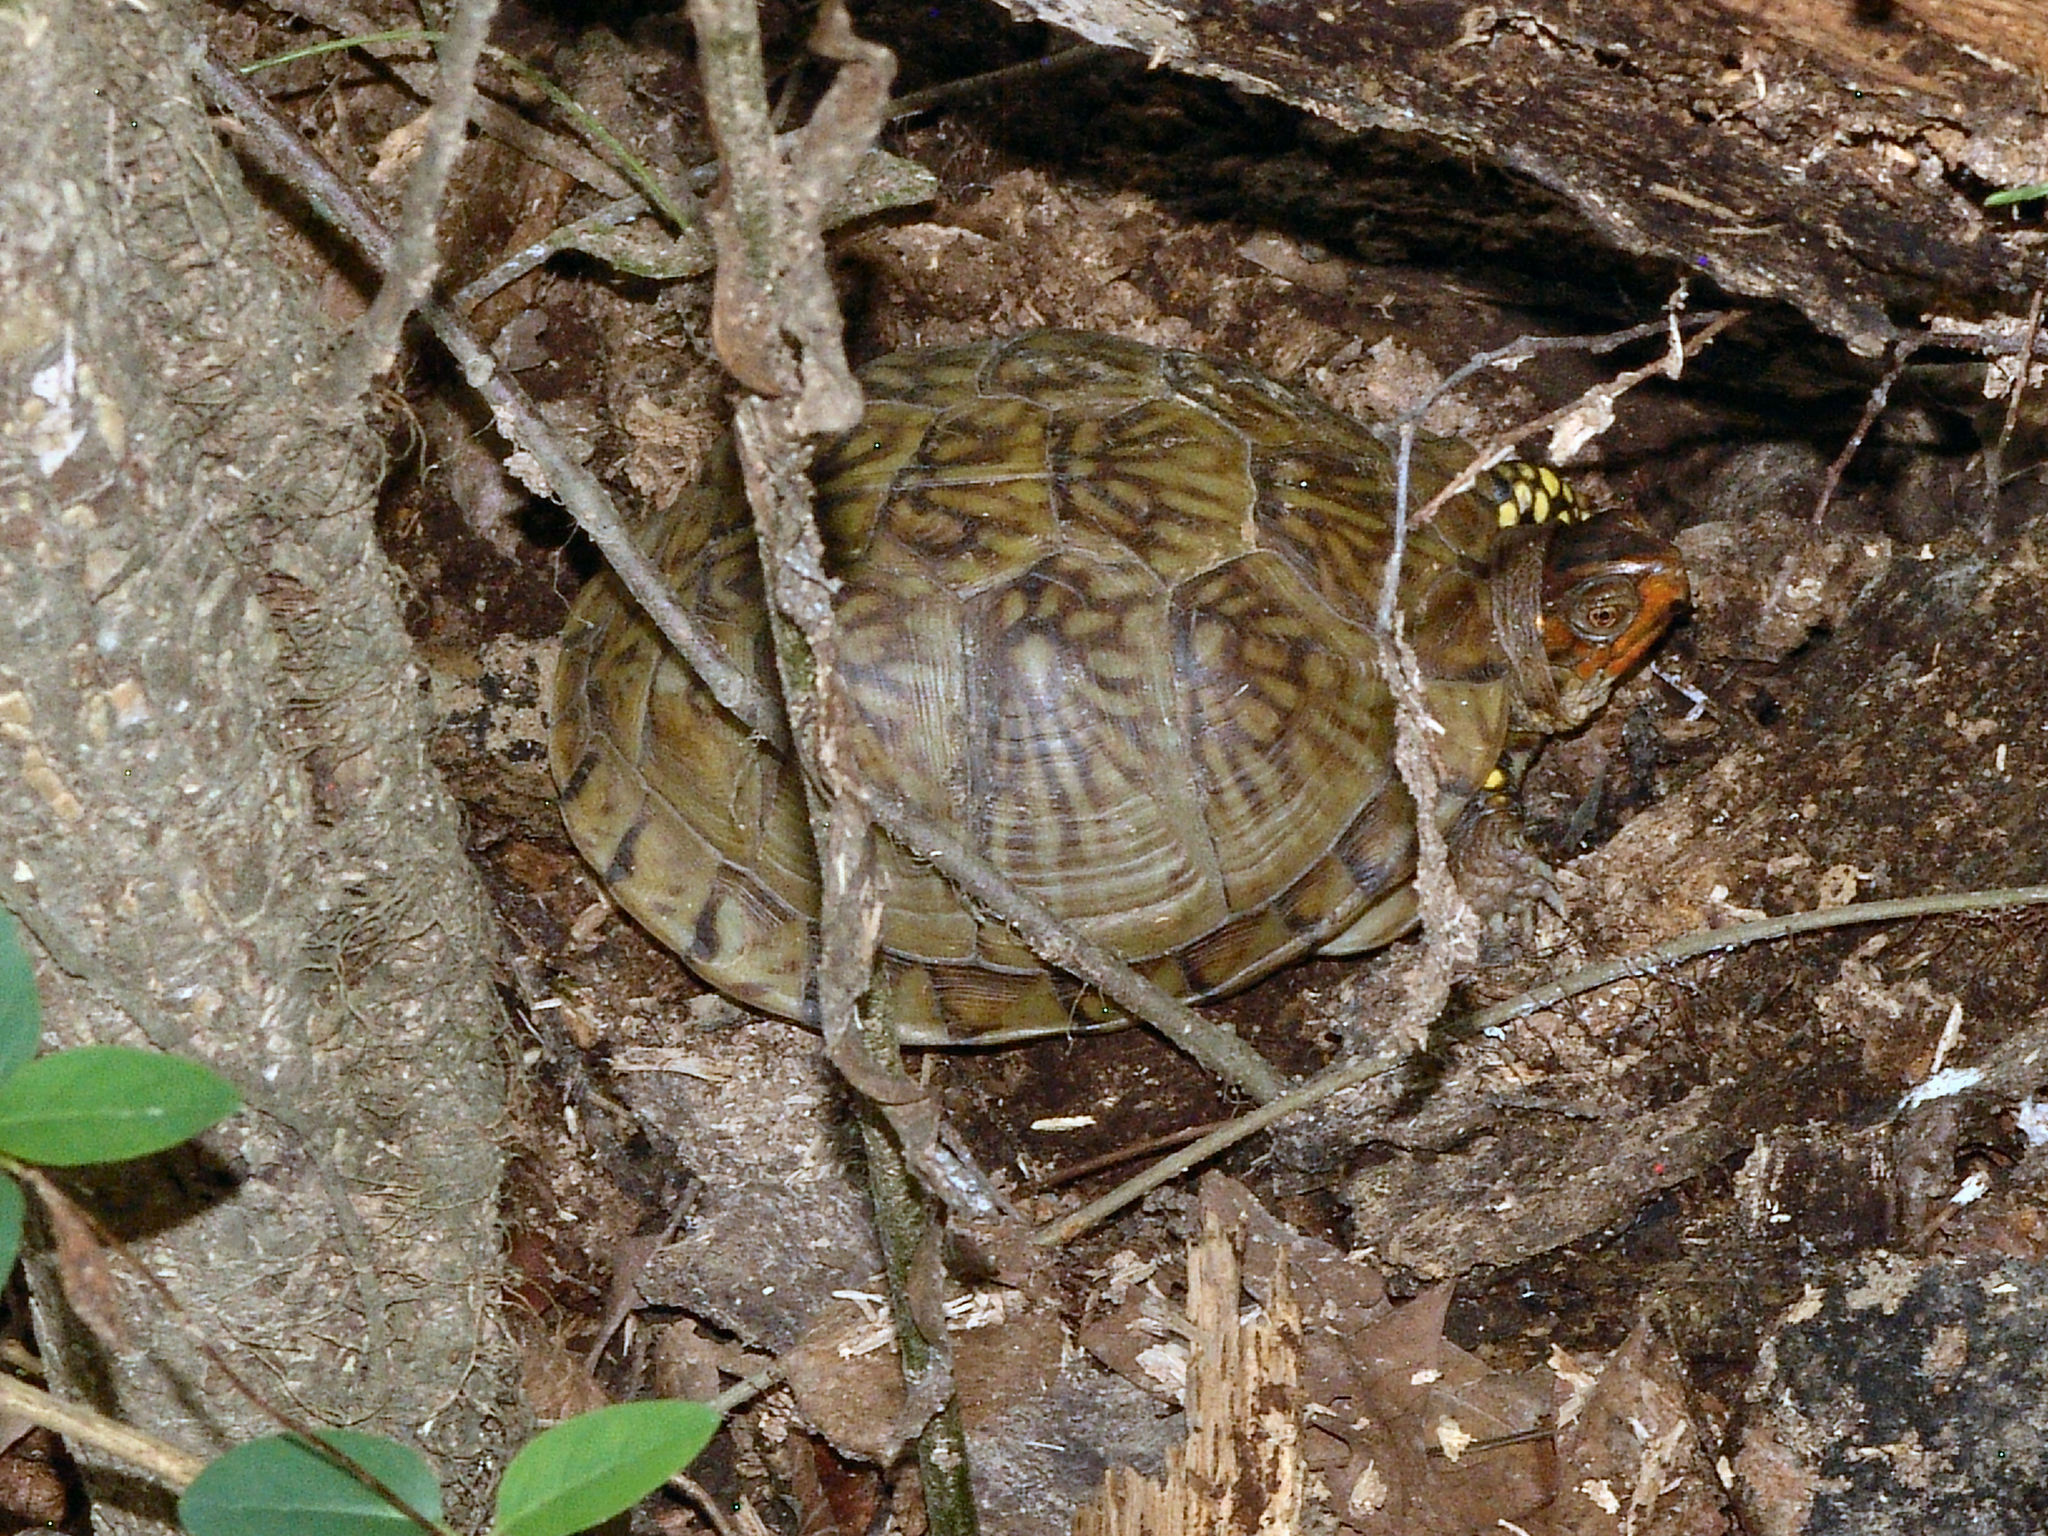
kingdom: Animalia
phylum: Chordata
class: Testudines
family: Emydidae
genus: Terrapene
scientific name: Terrapene carolina
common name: Common box turtle
